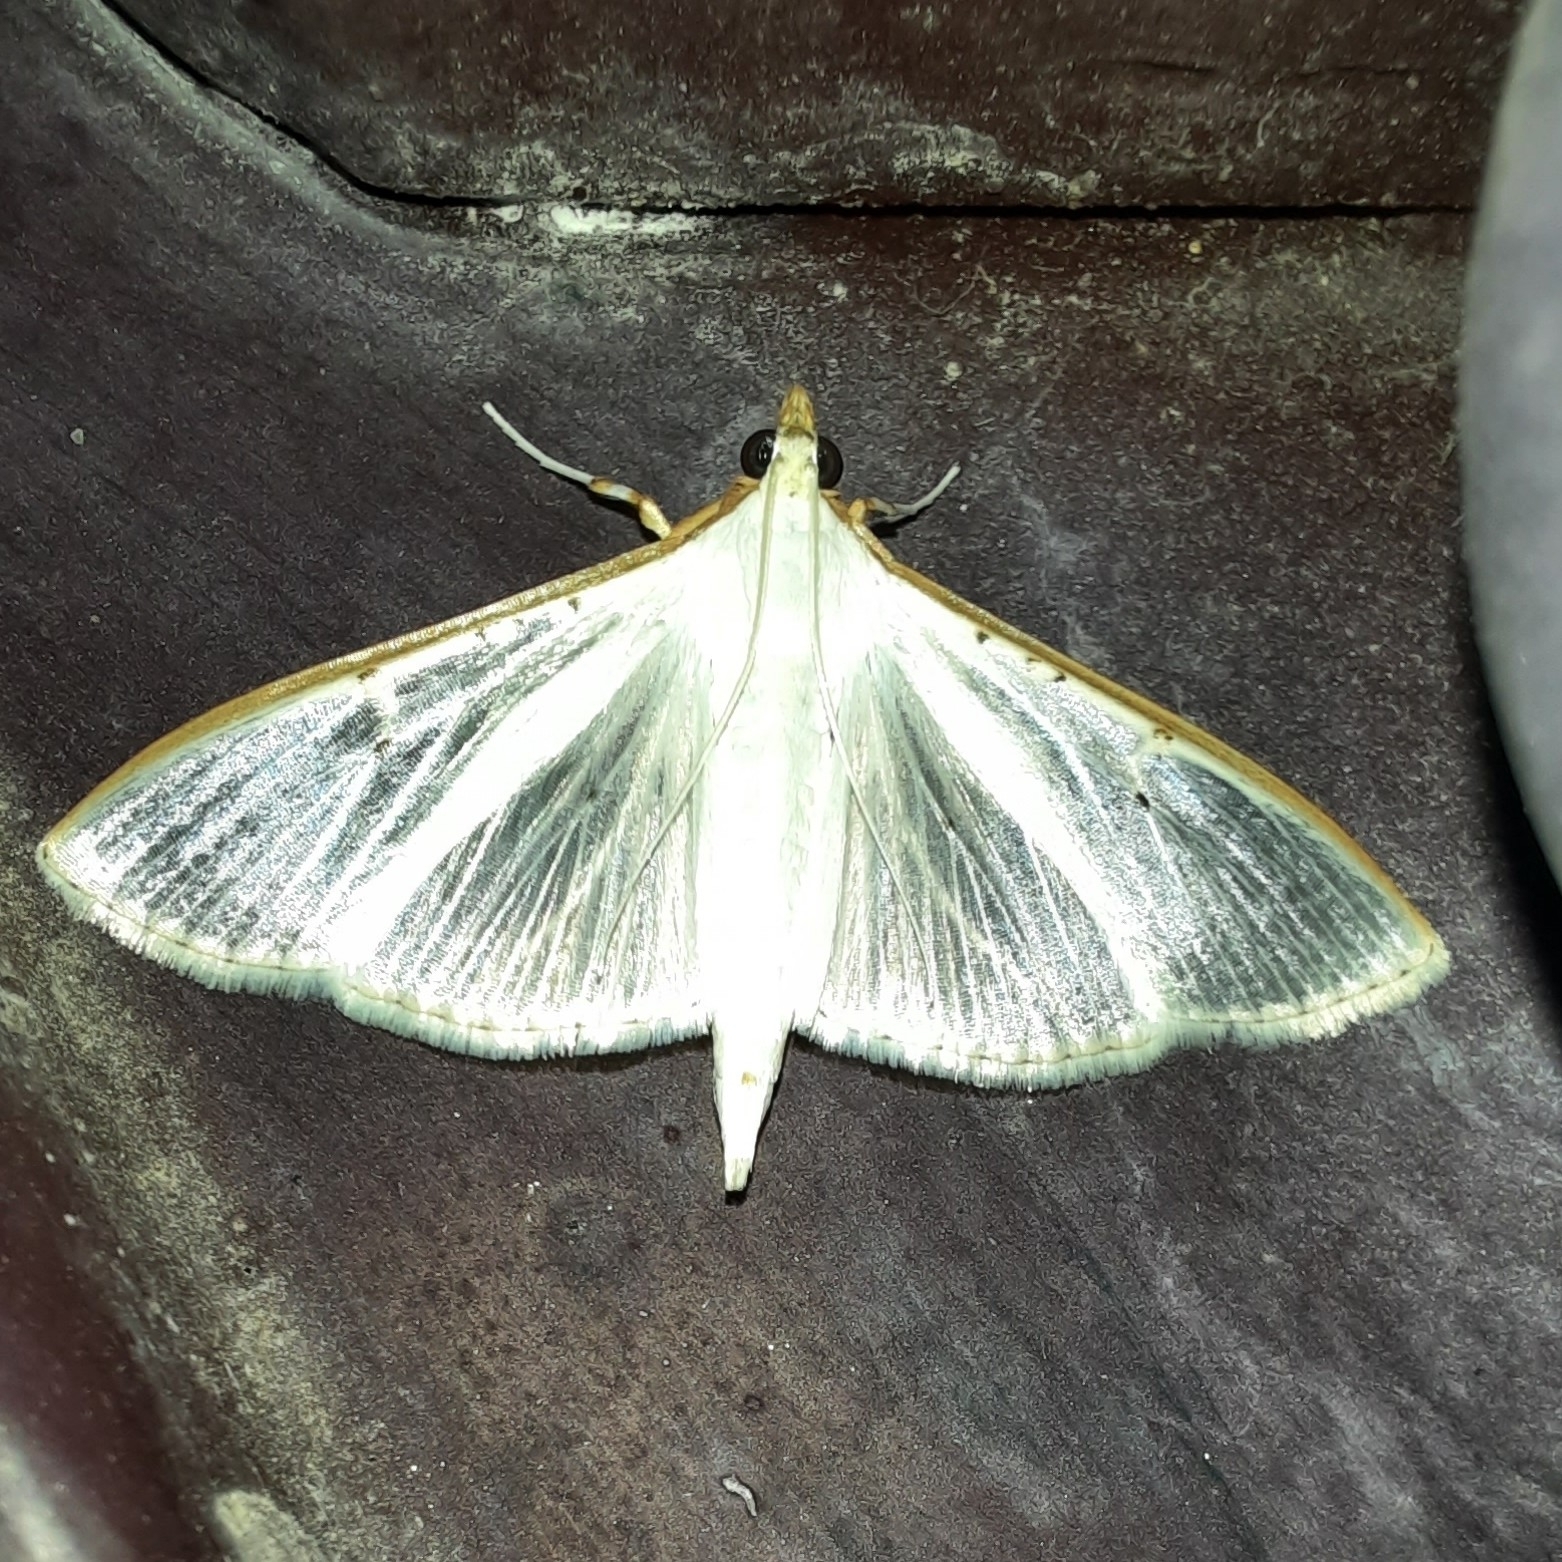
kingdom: Animalia
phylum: Arthropoda
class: Insecta
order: Lepidoptera
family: Crambidae
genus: Palpita
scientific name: Palpita vitrealis
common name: Olive-tree pearl
